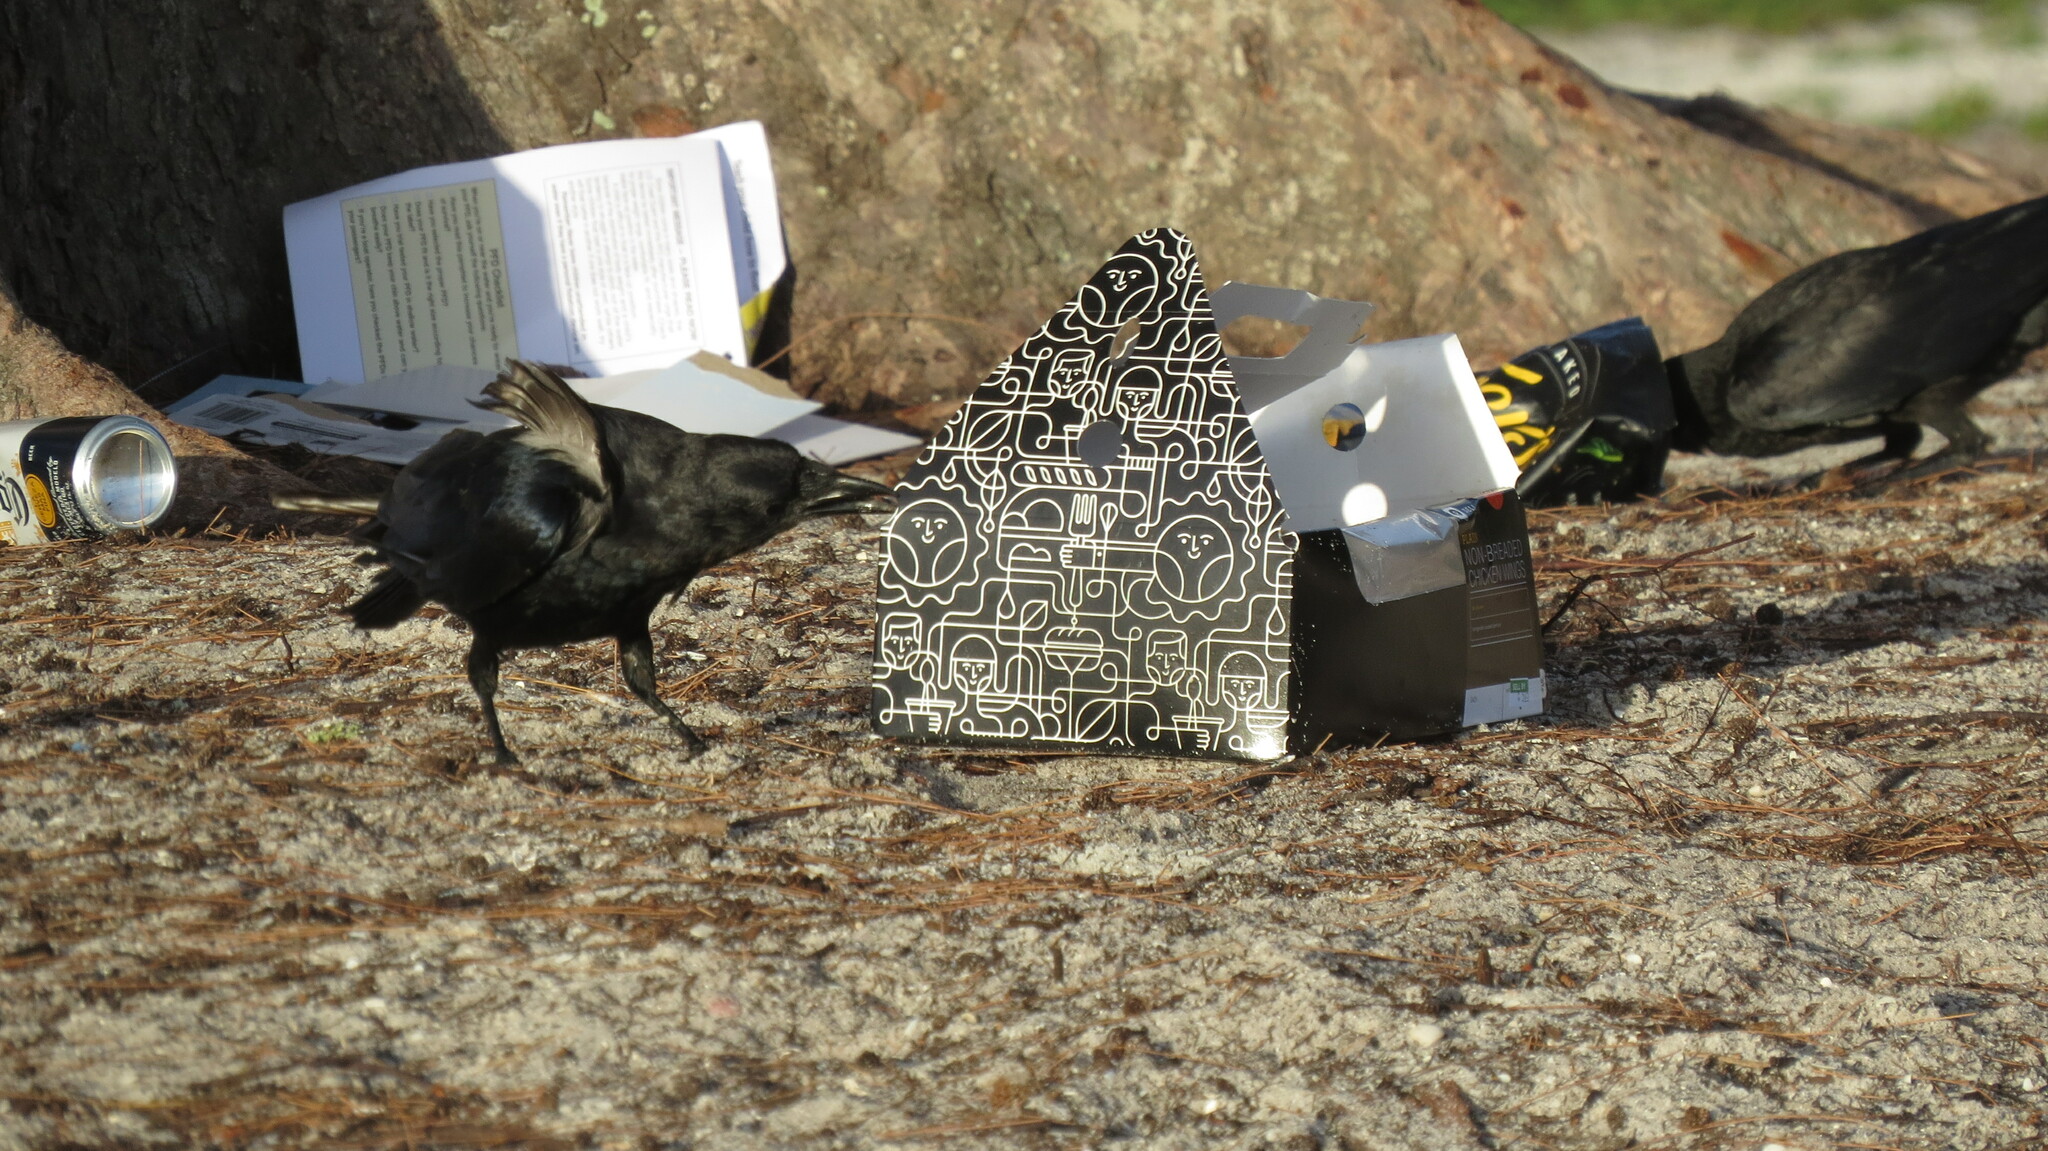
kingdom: Animalia
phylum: Chordata
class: Aves
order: Passeriformes
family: Corvidae
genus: Corvus
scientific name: Corvus ossifragus
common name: Fish crow
